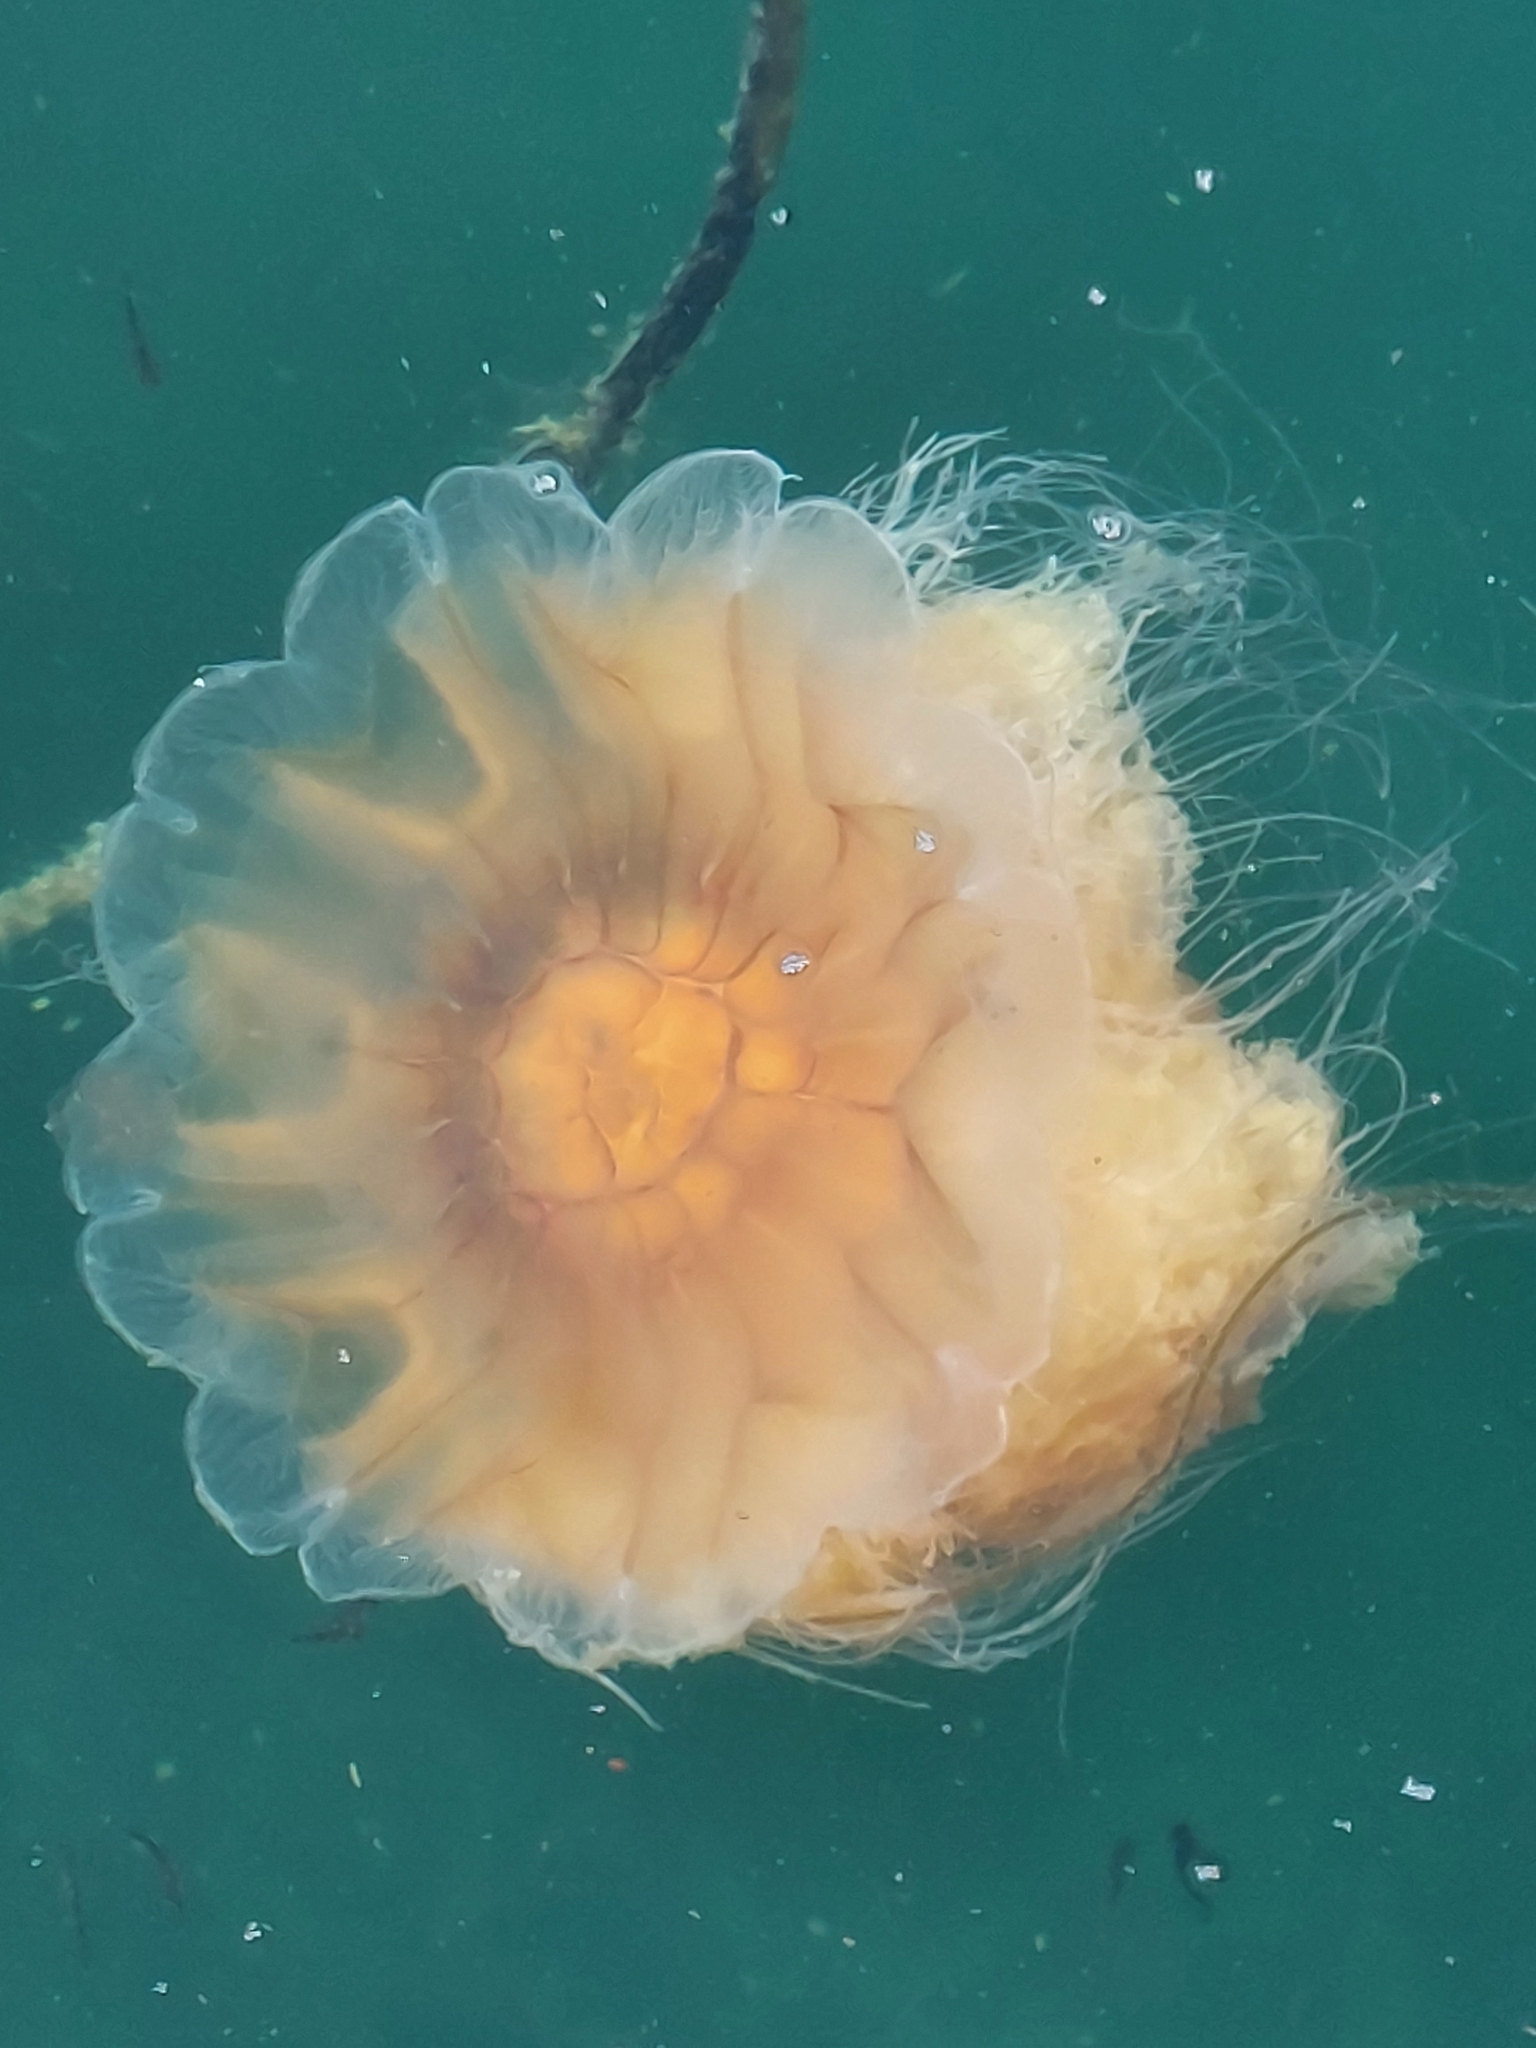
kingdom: Animalia
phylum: Cnidaria
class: Scyphozoa
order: Semaeostomeae
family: Cyaneidae
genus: Cyanea
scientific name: Cyanea capillata
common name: Lion's mane jellyfish
